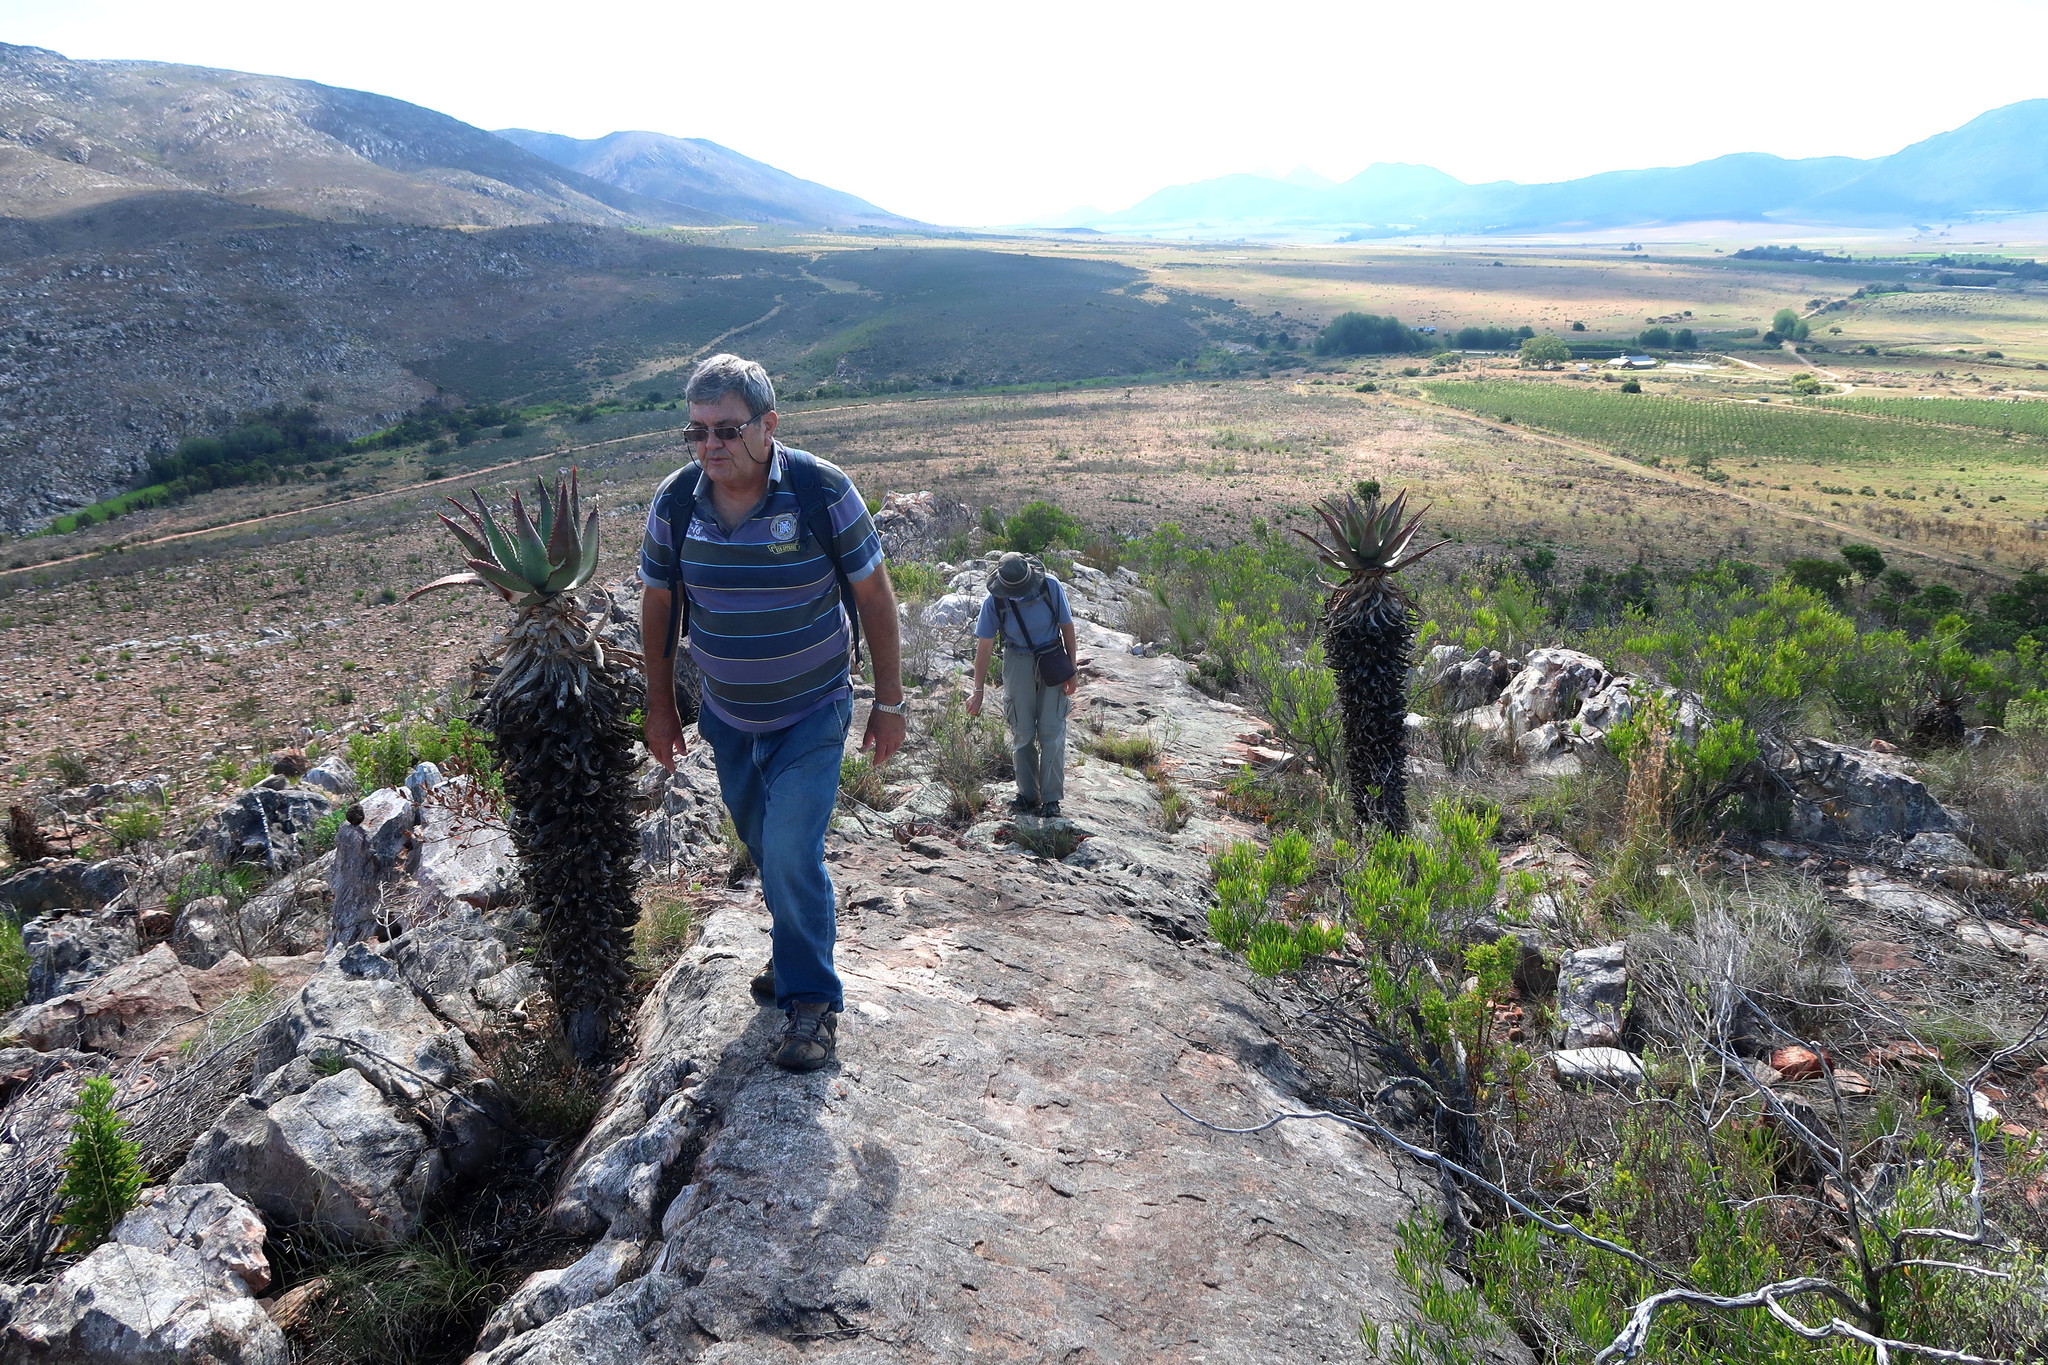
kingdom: Plantae
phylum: Tracheophyta
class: Liliopsida
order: Asparagales
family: Asphodelaceae
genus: Aloe
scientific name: Aloe ferox
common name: Bitter aloe
